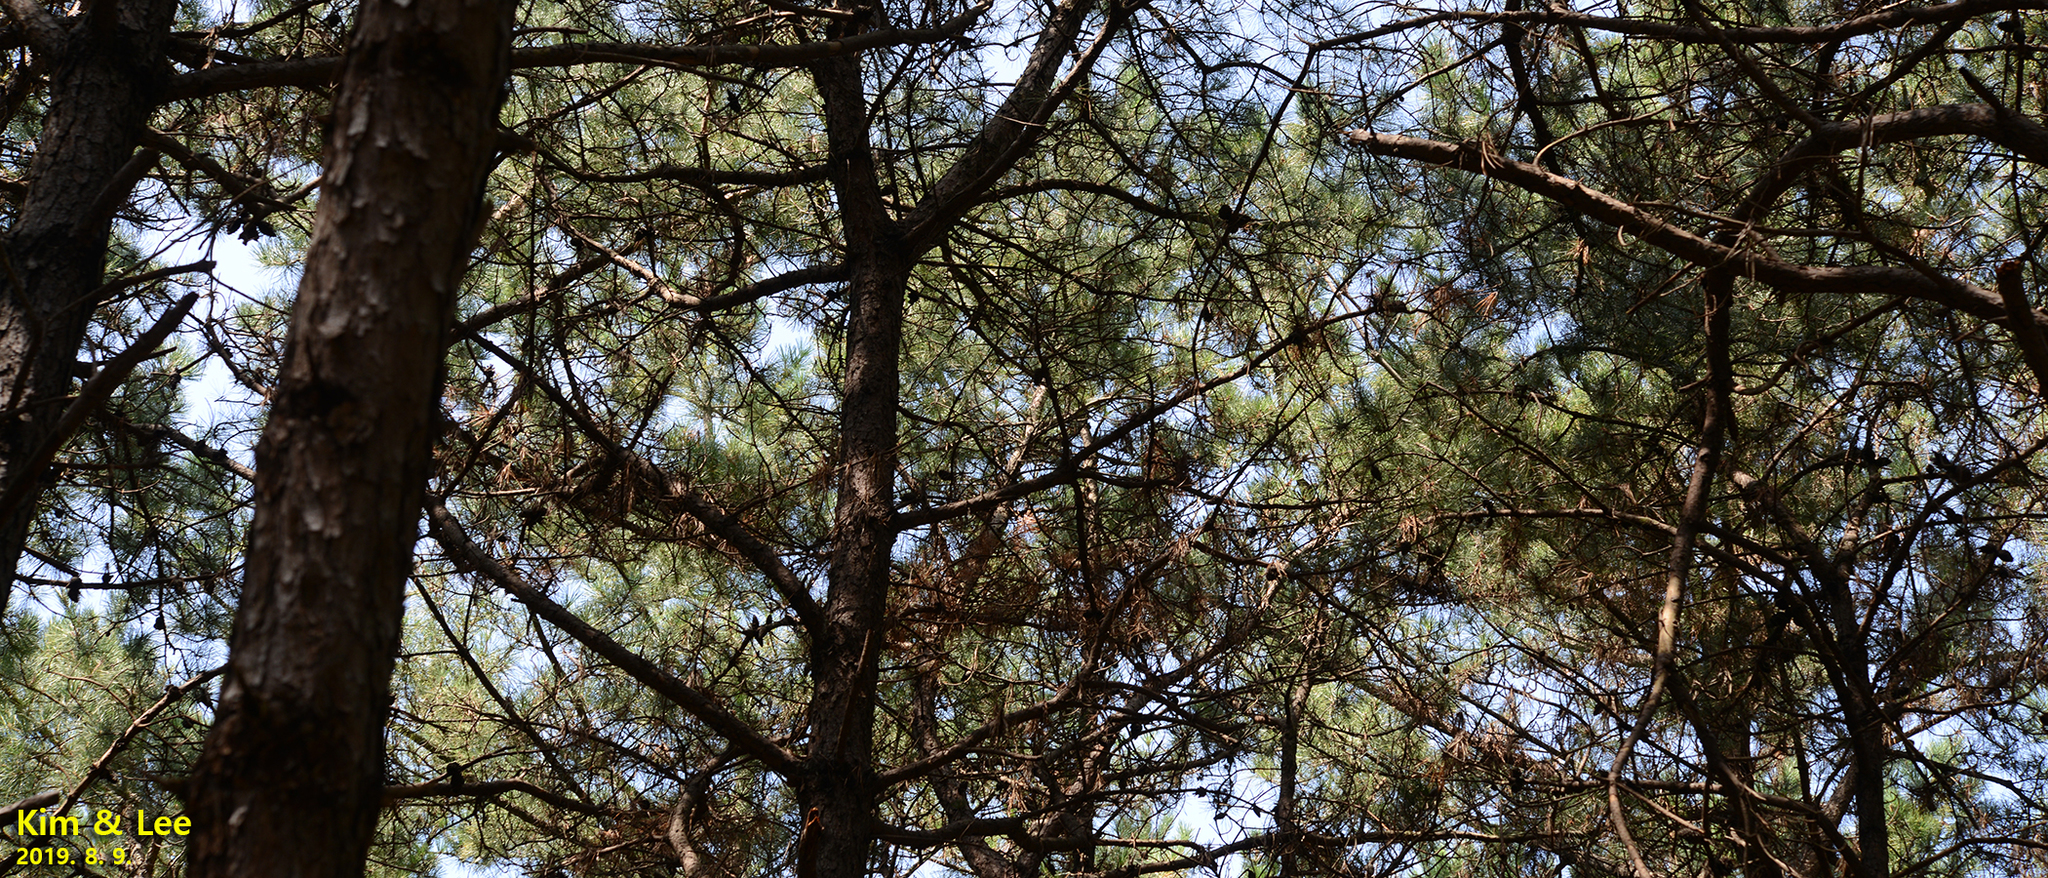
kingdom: Plantae
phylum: Tracheophyta
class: Pinopsida
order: Pinales
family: Pinaceae
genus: Pinus
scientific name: Pinus rigida
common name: Pitch pine
